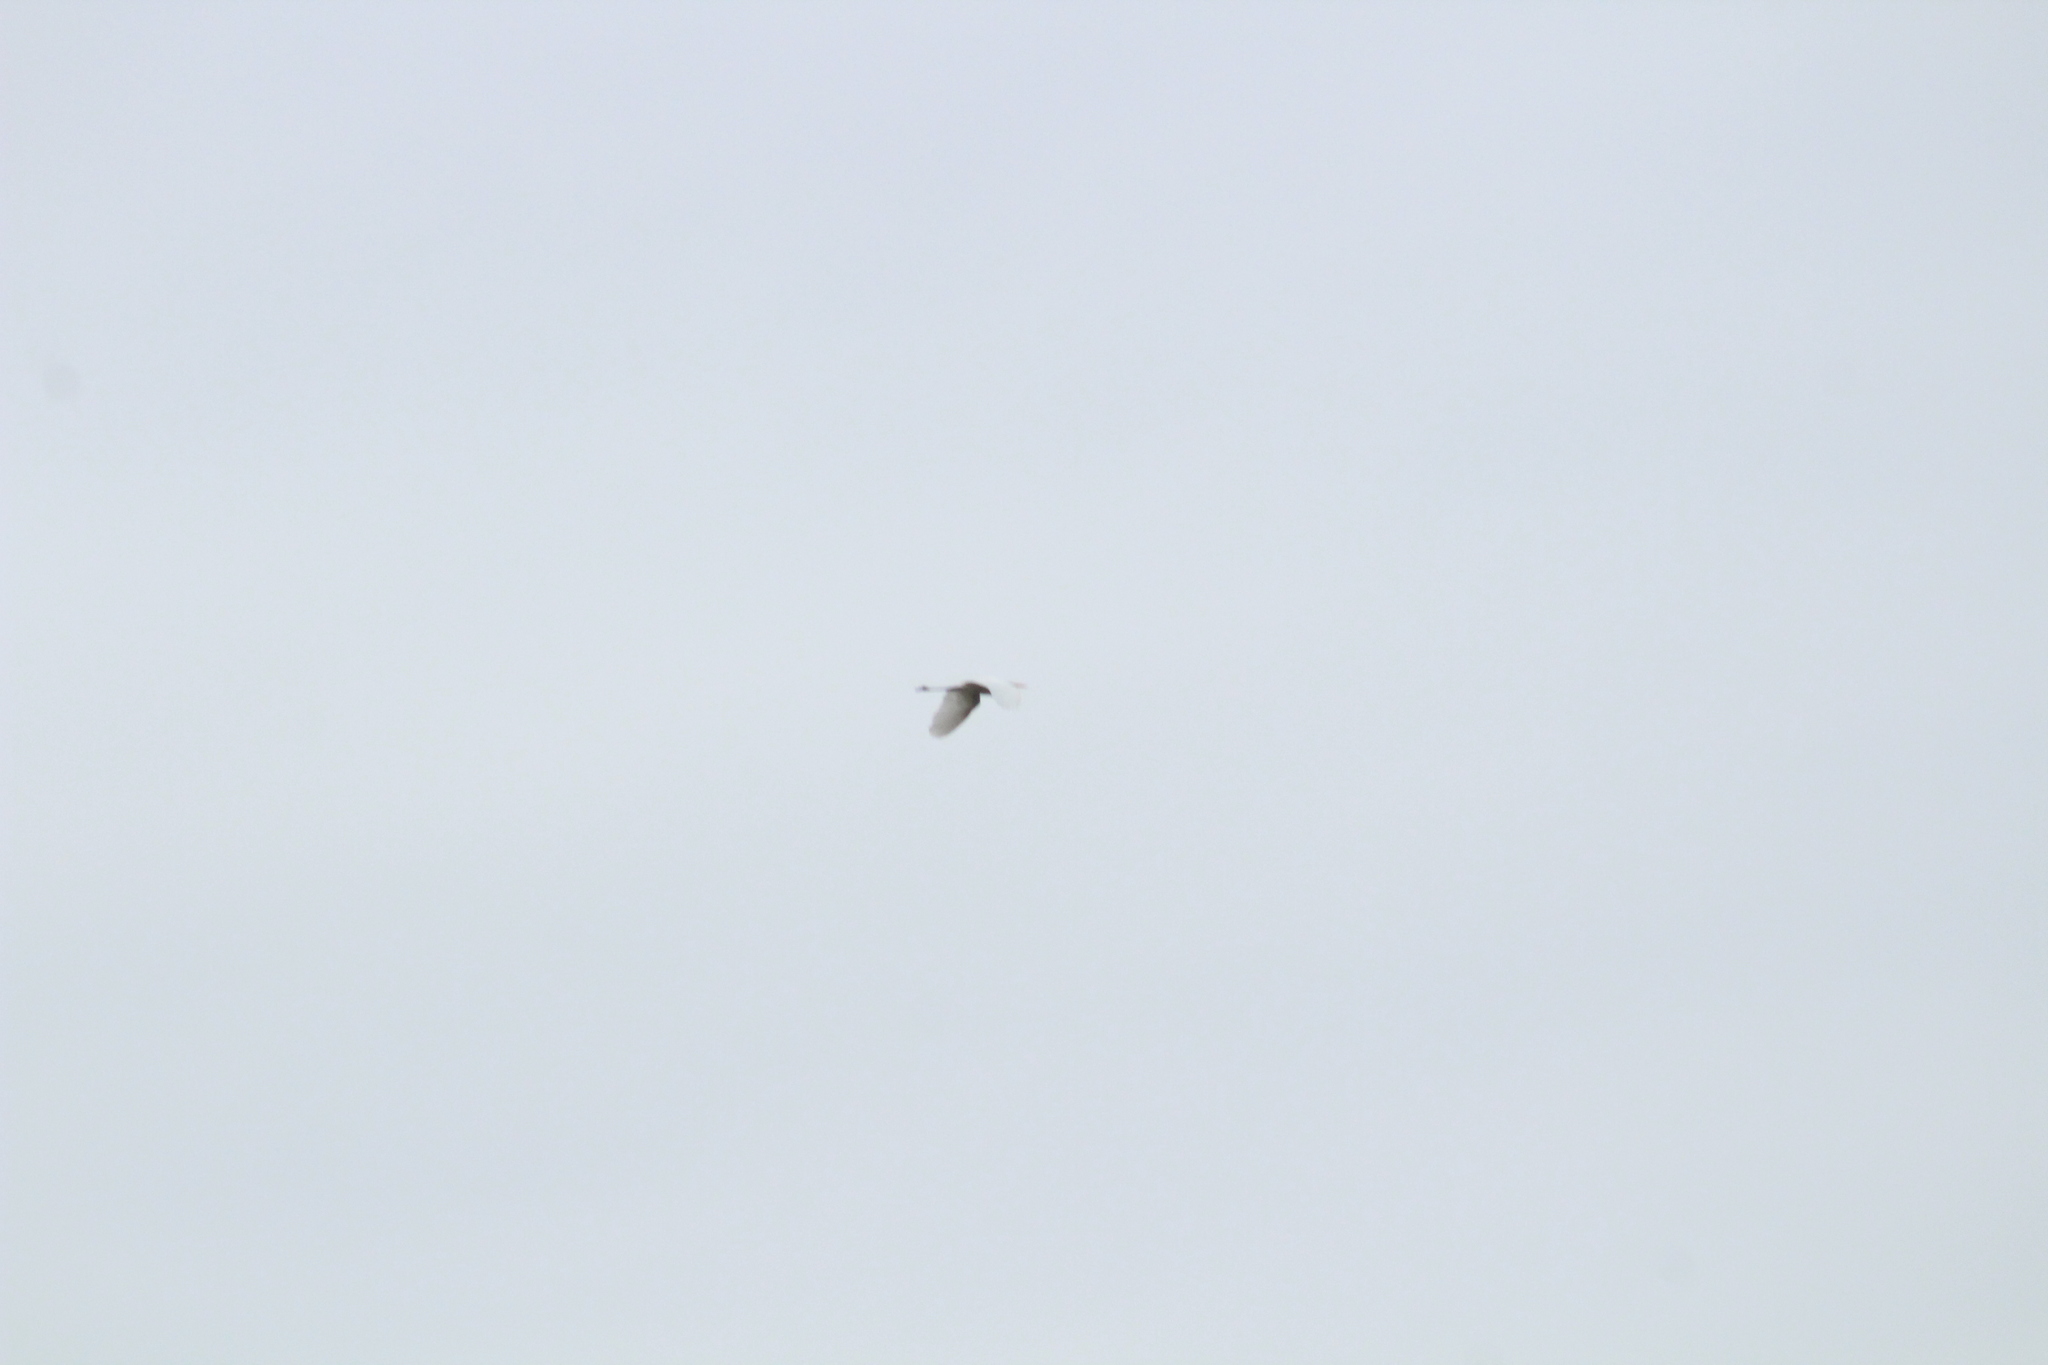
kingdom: Animalia
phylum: Chordata
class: Aves
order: Pelecaniformes
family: Ardeidae
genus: Ardea
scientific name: Ardea alba
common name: Great egret
